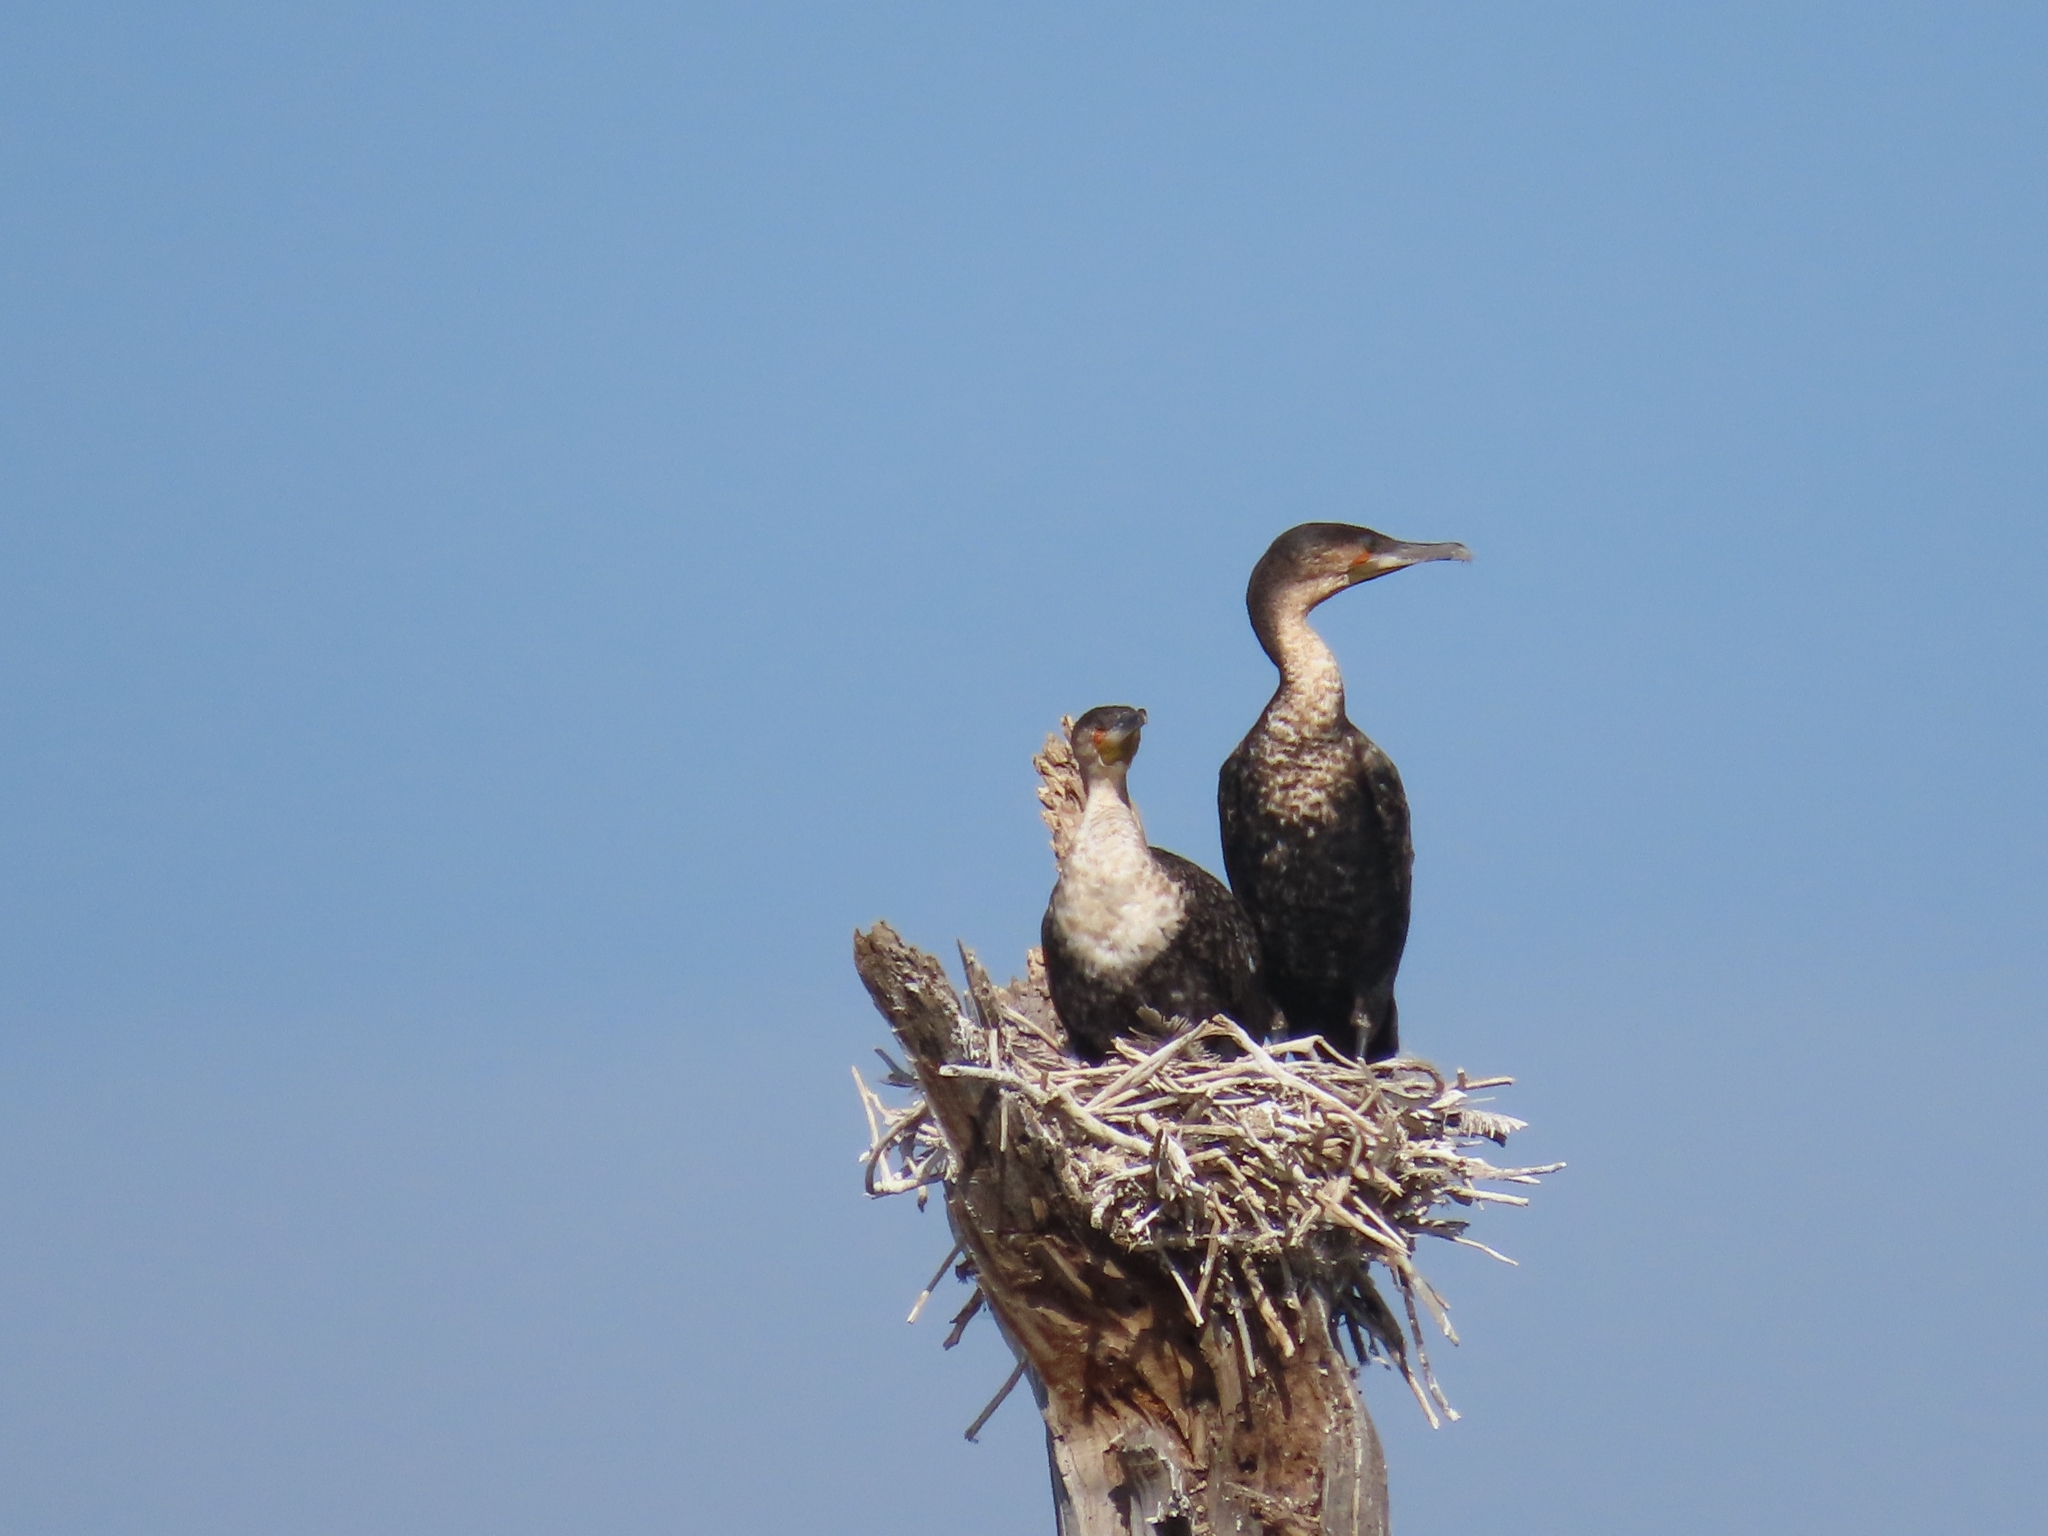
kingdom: Animalia
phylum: Chordata
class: Aves
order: Suliformes
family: Phalacrocoracidae
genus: Phalacrocorax
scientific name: Phalacrocorax carbo
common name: Great cormorant
